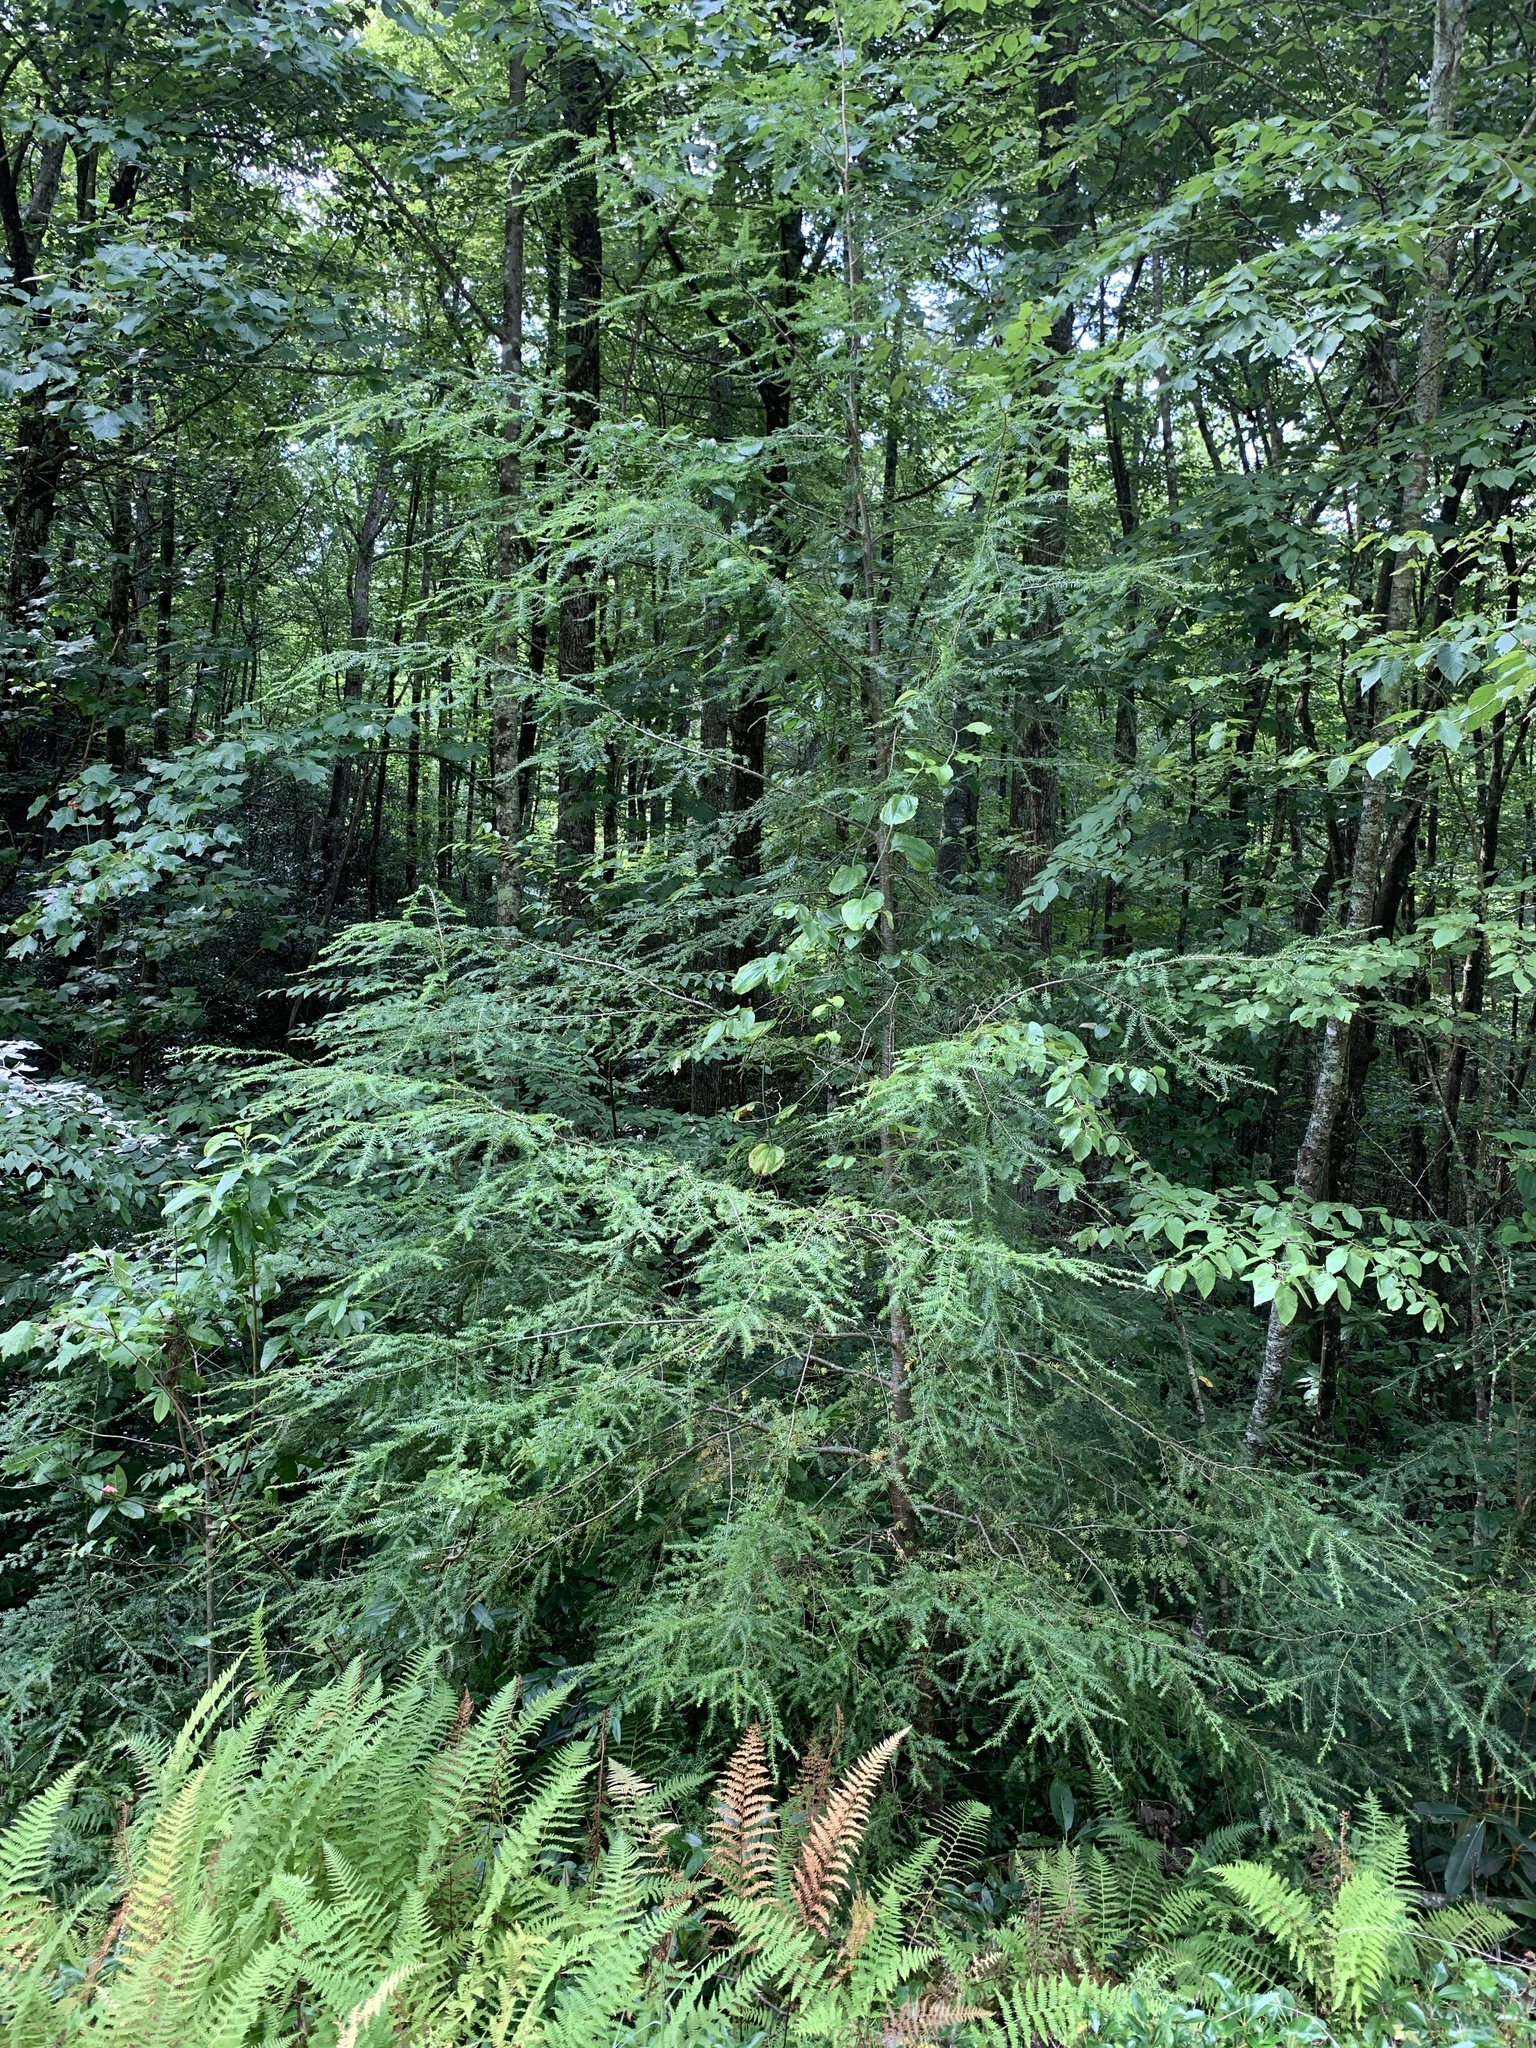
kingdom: Plantae
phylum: Tracheophyta
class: Pinopsida
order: Pinales
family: Pinaceae
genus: Tsuga
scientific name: Tsuga canadensis
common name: Eastern hemlock
